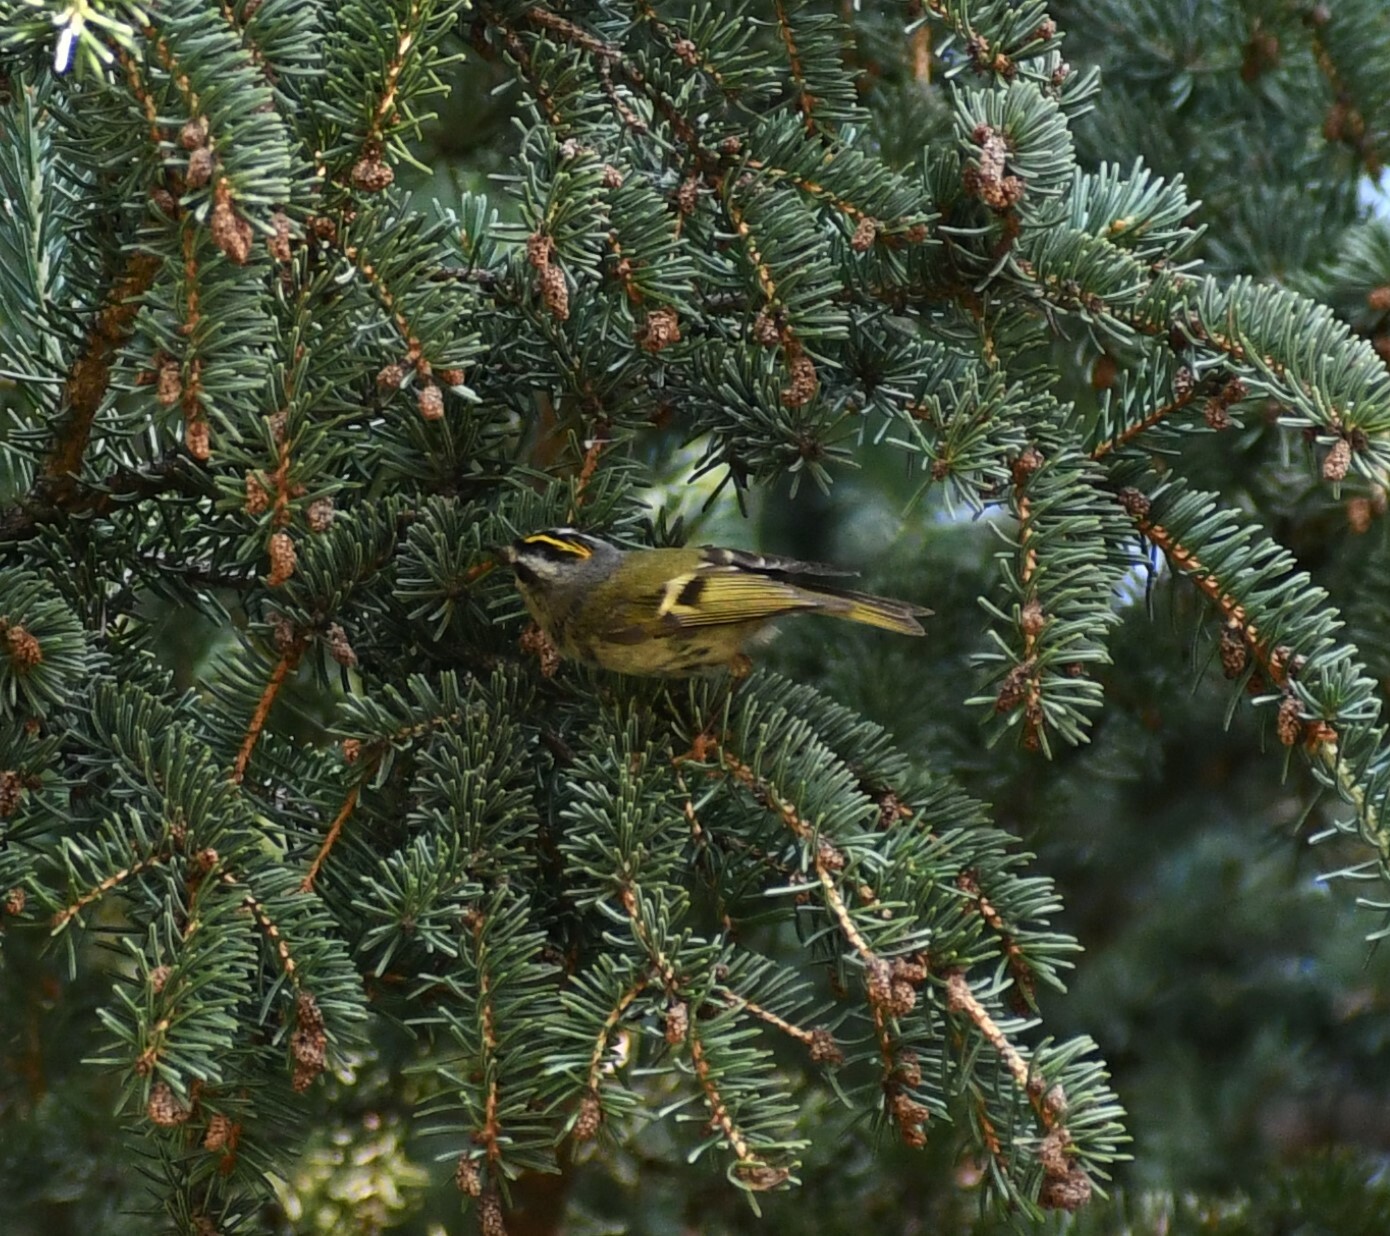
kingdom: Animalia
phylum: Chordata
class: Aves
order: Passeriformes
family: Regulidae
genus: Regulus
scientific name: Regulus satrapa
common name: Golden-crowned kinglet
